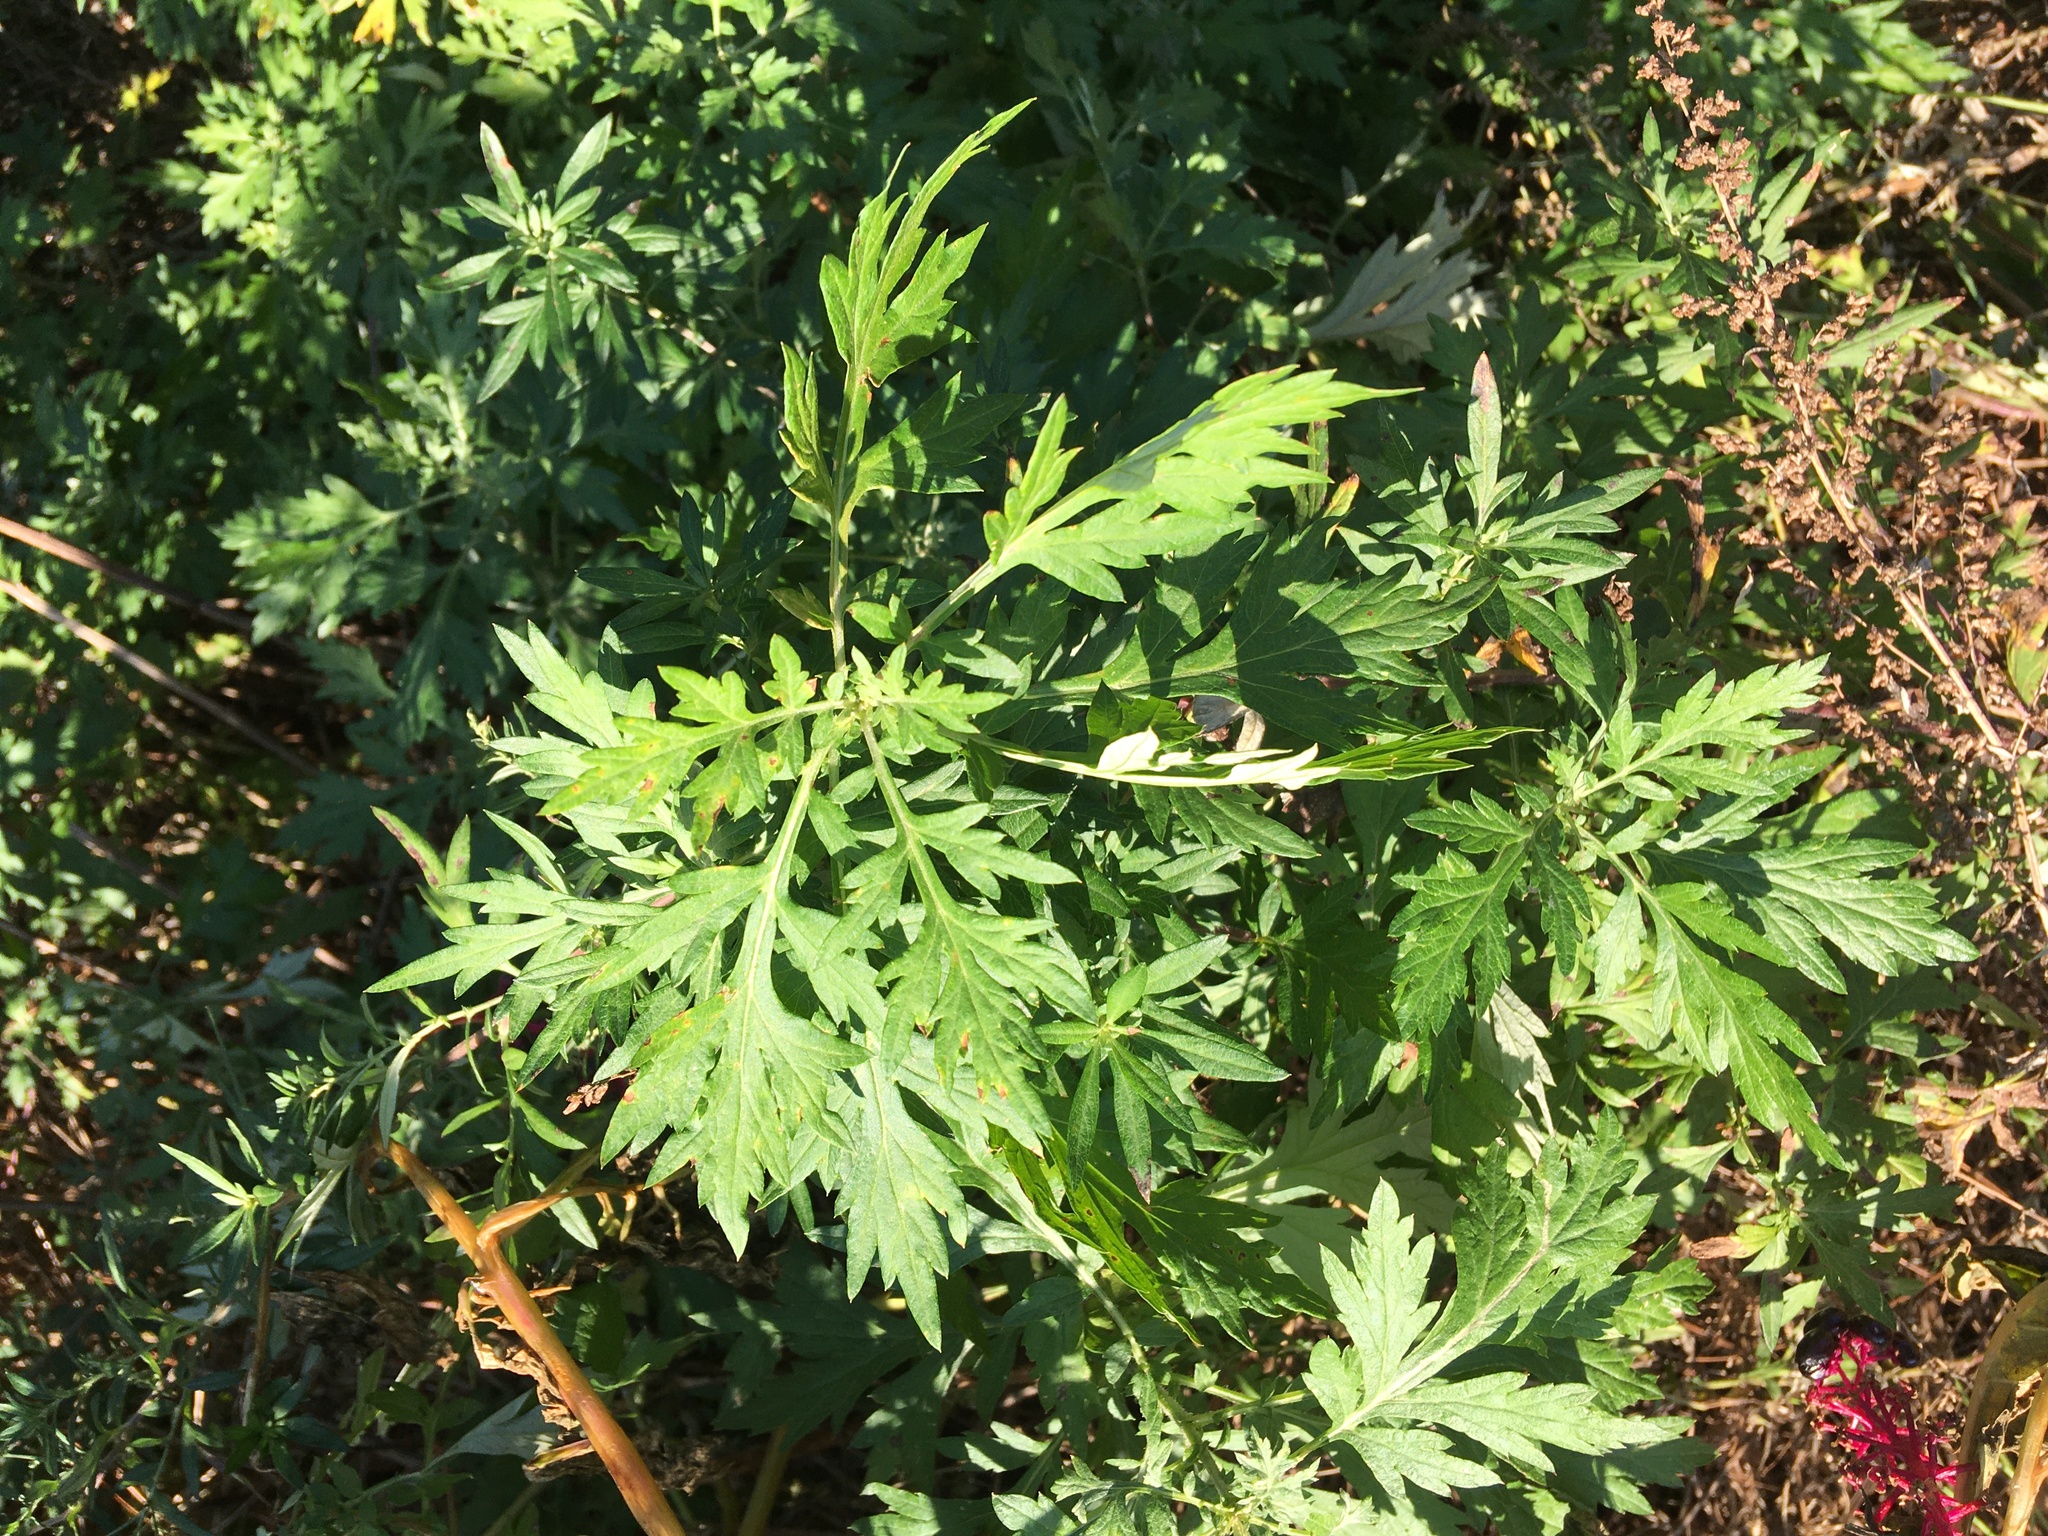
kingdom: Plantae
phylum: Tracheophyta
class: Magnoliopsida
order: Asterales
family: Asteraceae
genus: Artemisia
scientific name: Artemisia vulgaris
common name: Mugwort
